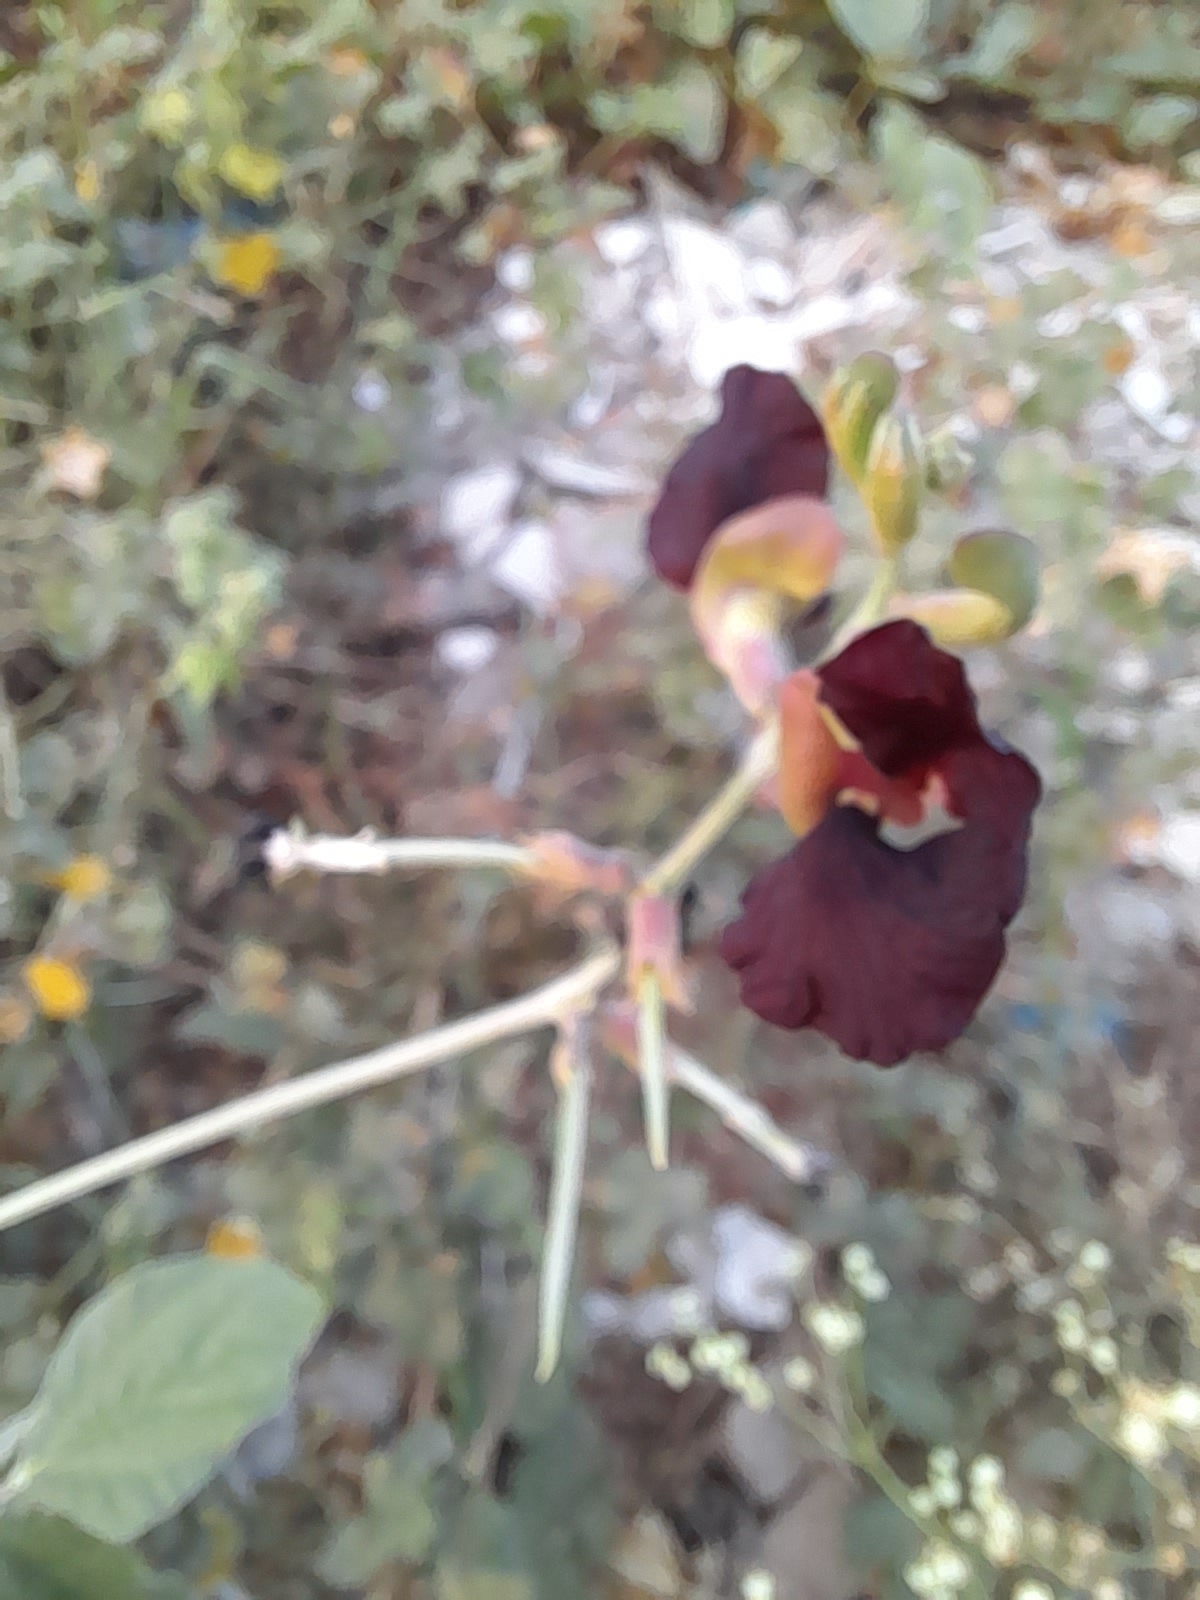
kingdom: Plantae
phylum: Tracheophyta
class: Magnoliopsida
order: Fabales
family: Fabaceae
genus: Macroptilium
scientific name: Macroptilium atropurpureum
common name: Purple bushbean
